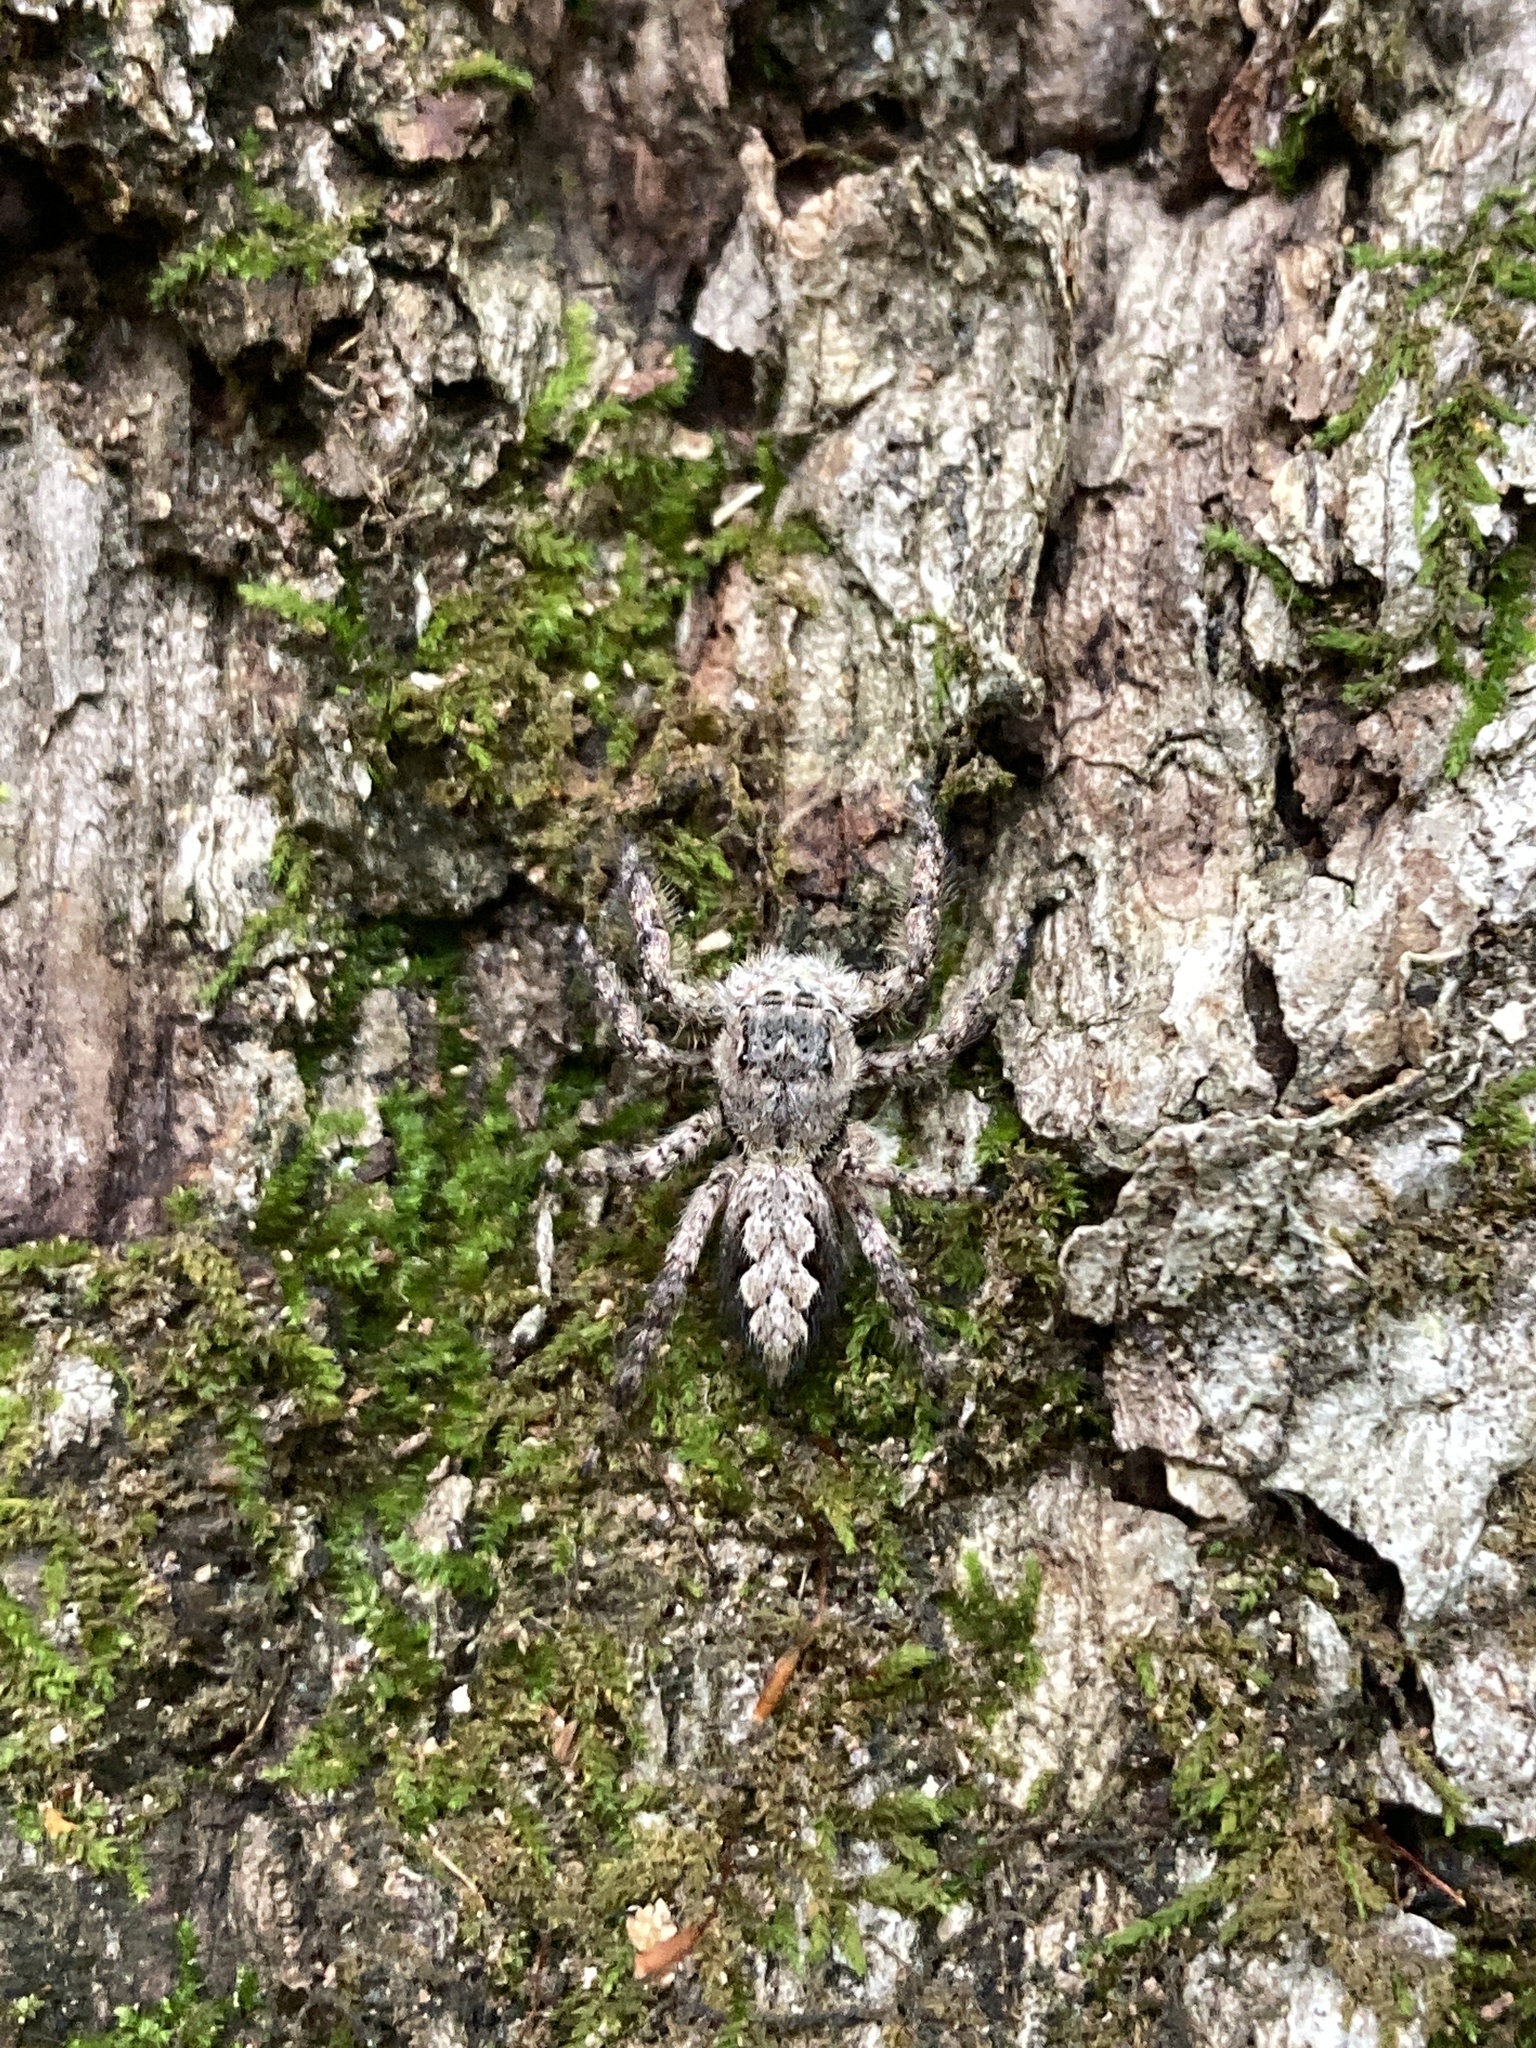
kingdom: Animalia
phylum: Arthropoda
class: Arachnida
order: Araneae
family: Salticidae
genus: Platycryptus
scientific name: Platycryptus undatus
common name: Tan jumping spider
